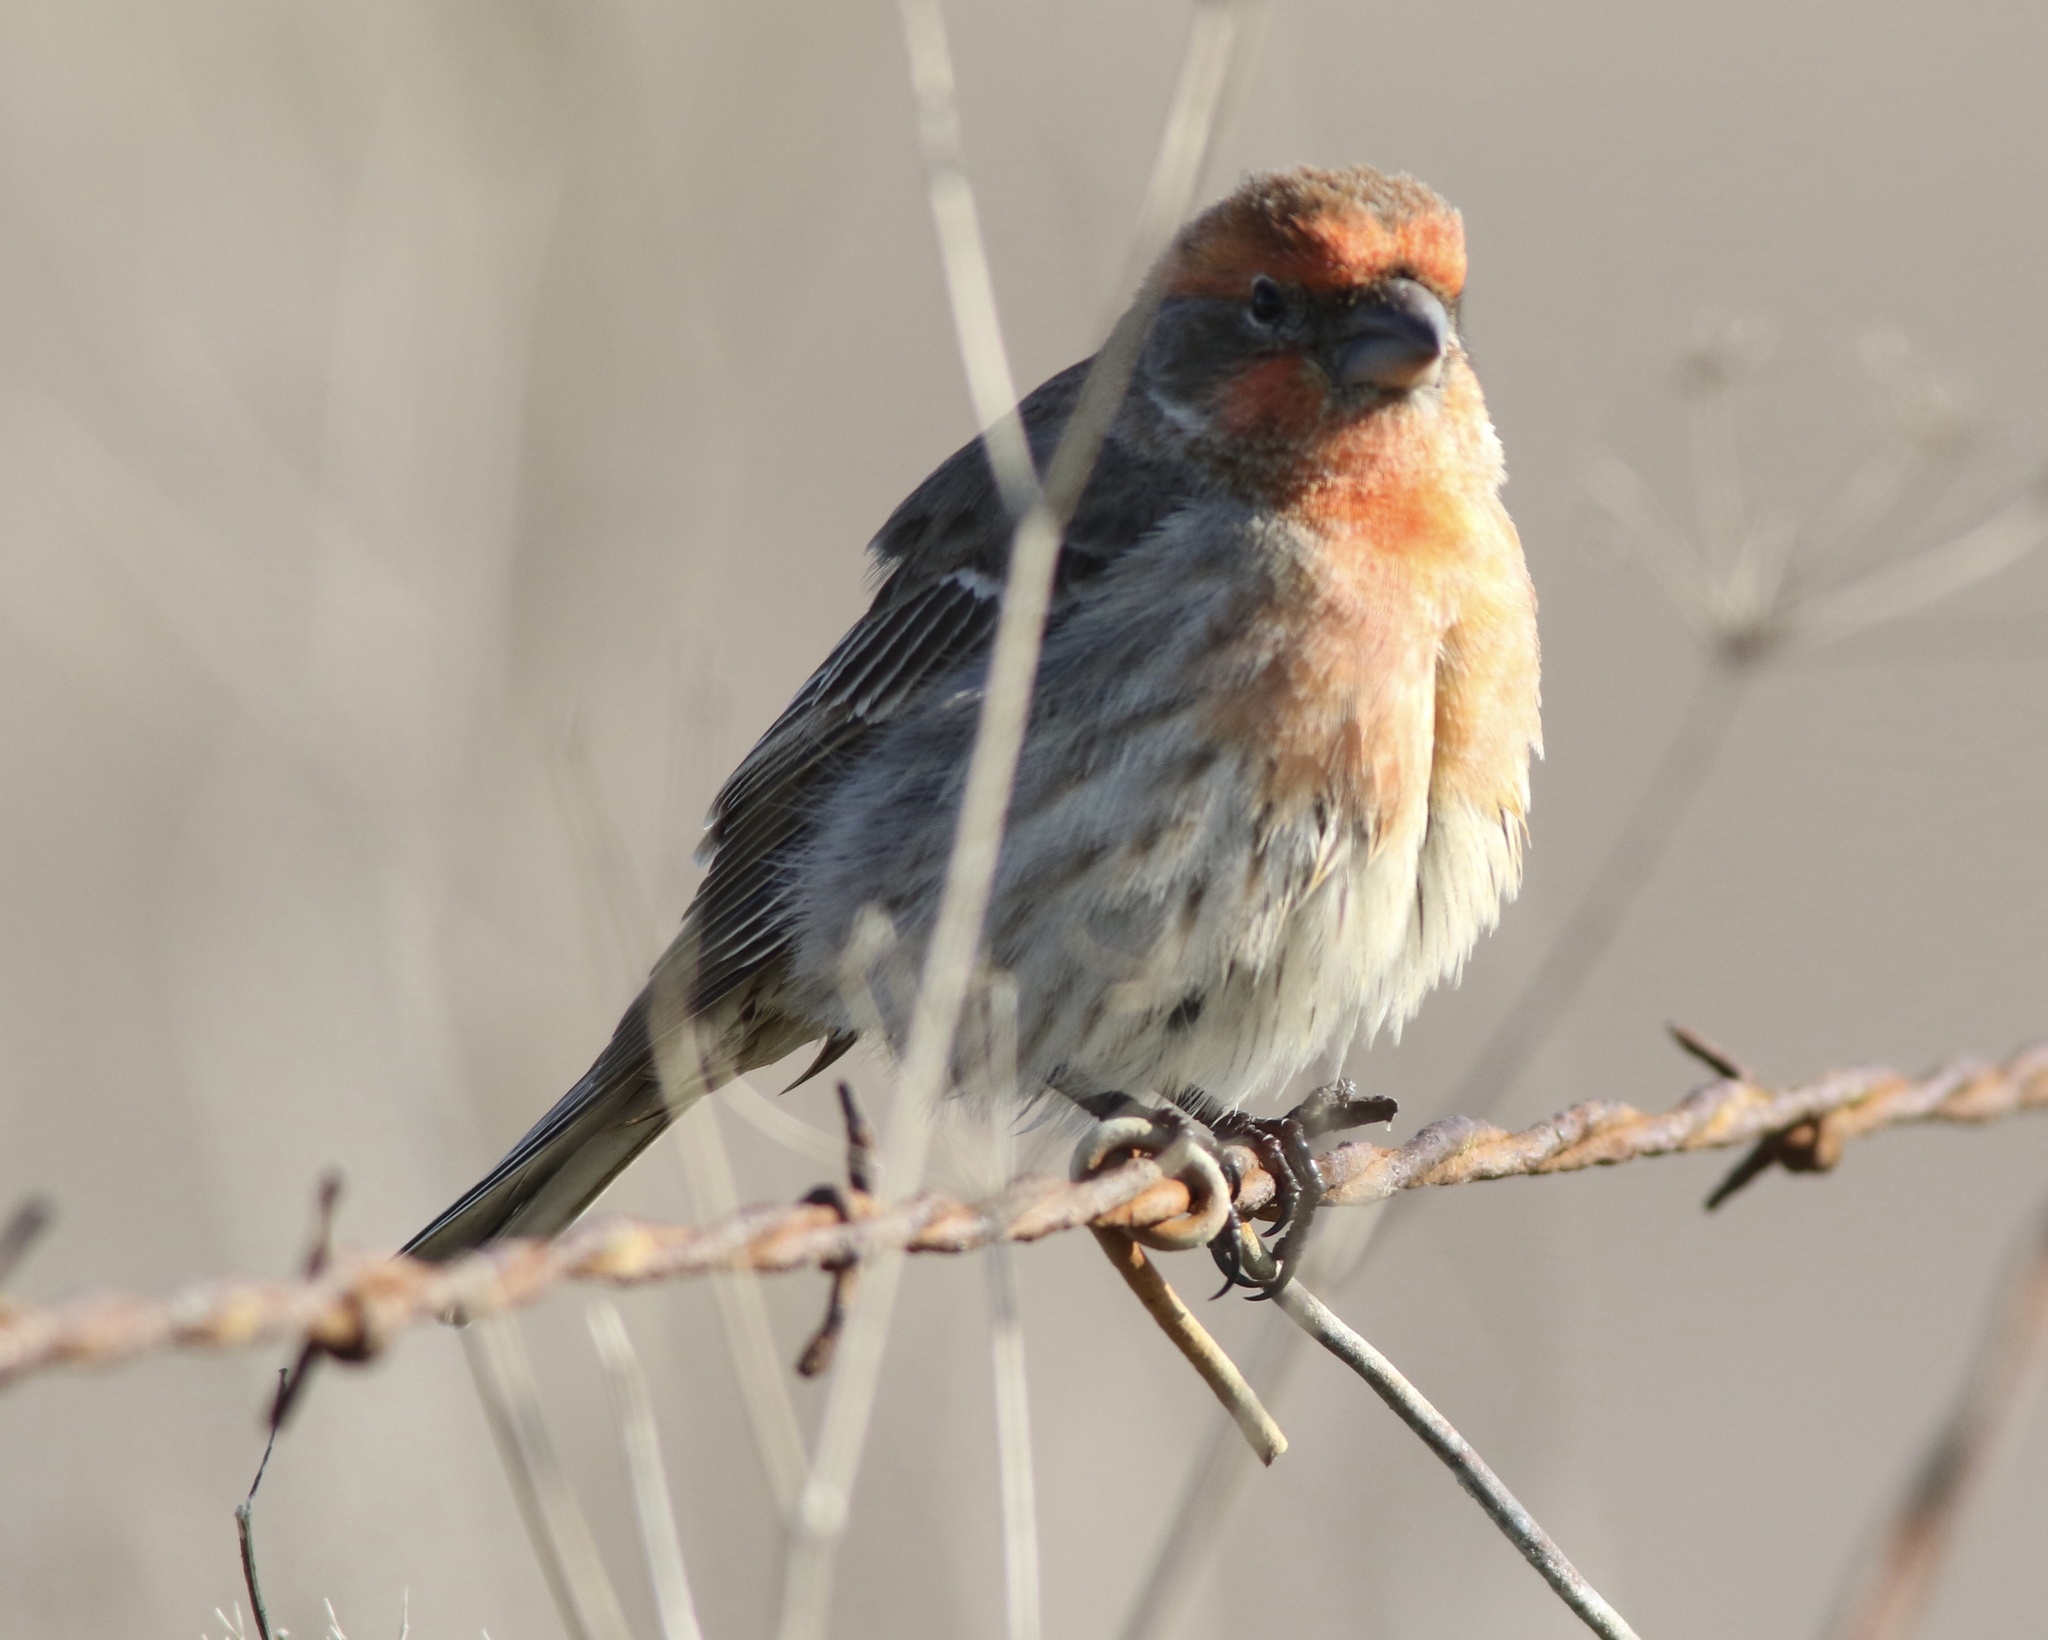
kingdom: Animalia
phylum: Chordata
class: Aves
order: Passeriformes
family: Fringillidae
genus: Haemorhous
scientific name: Haemorhous mexicanus
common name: House finch
